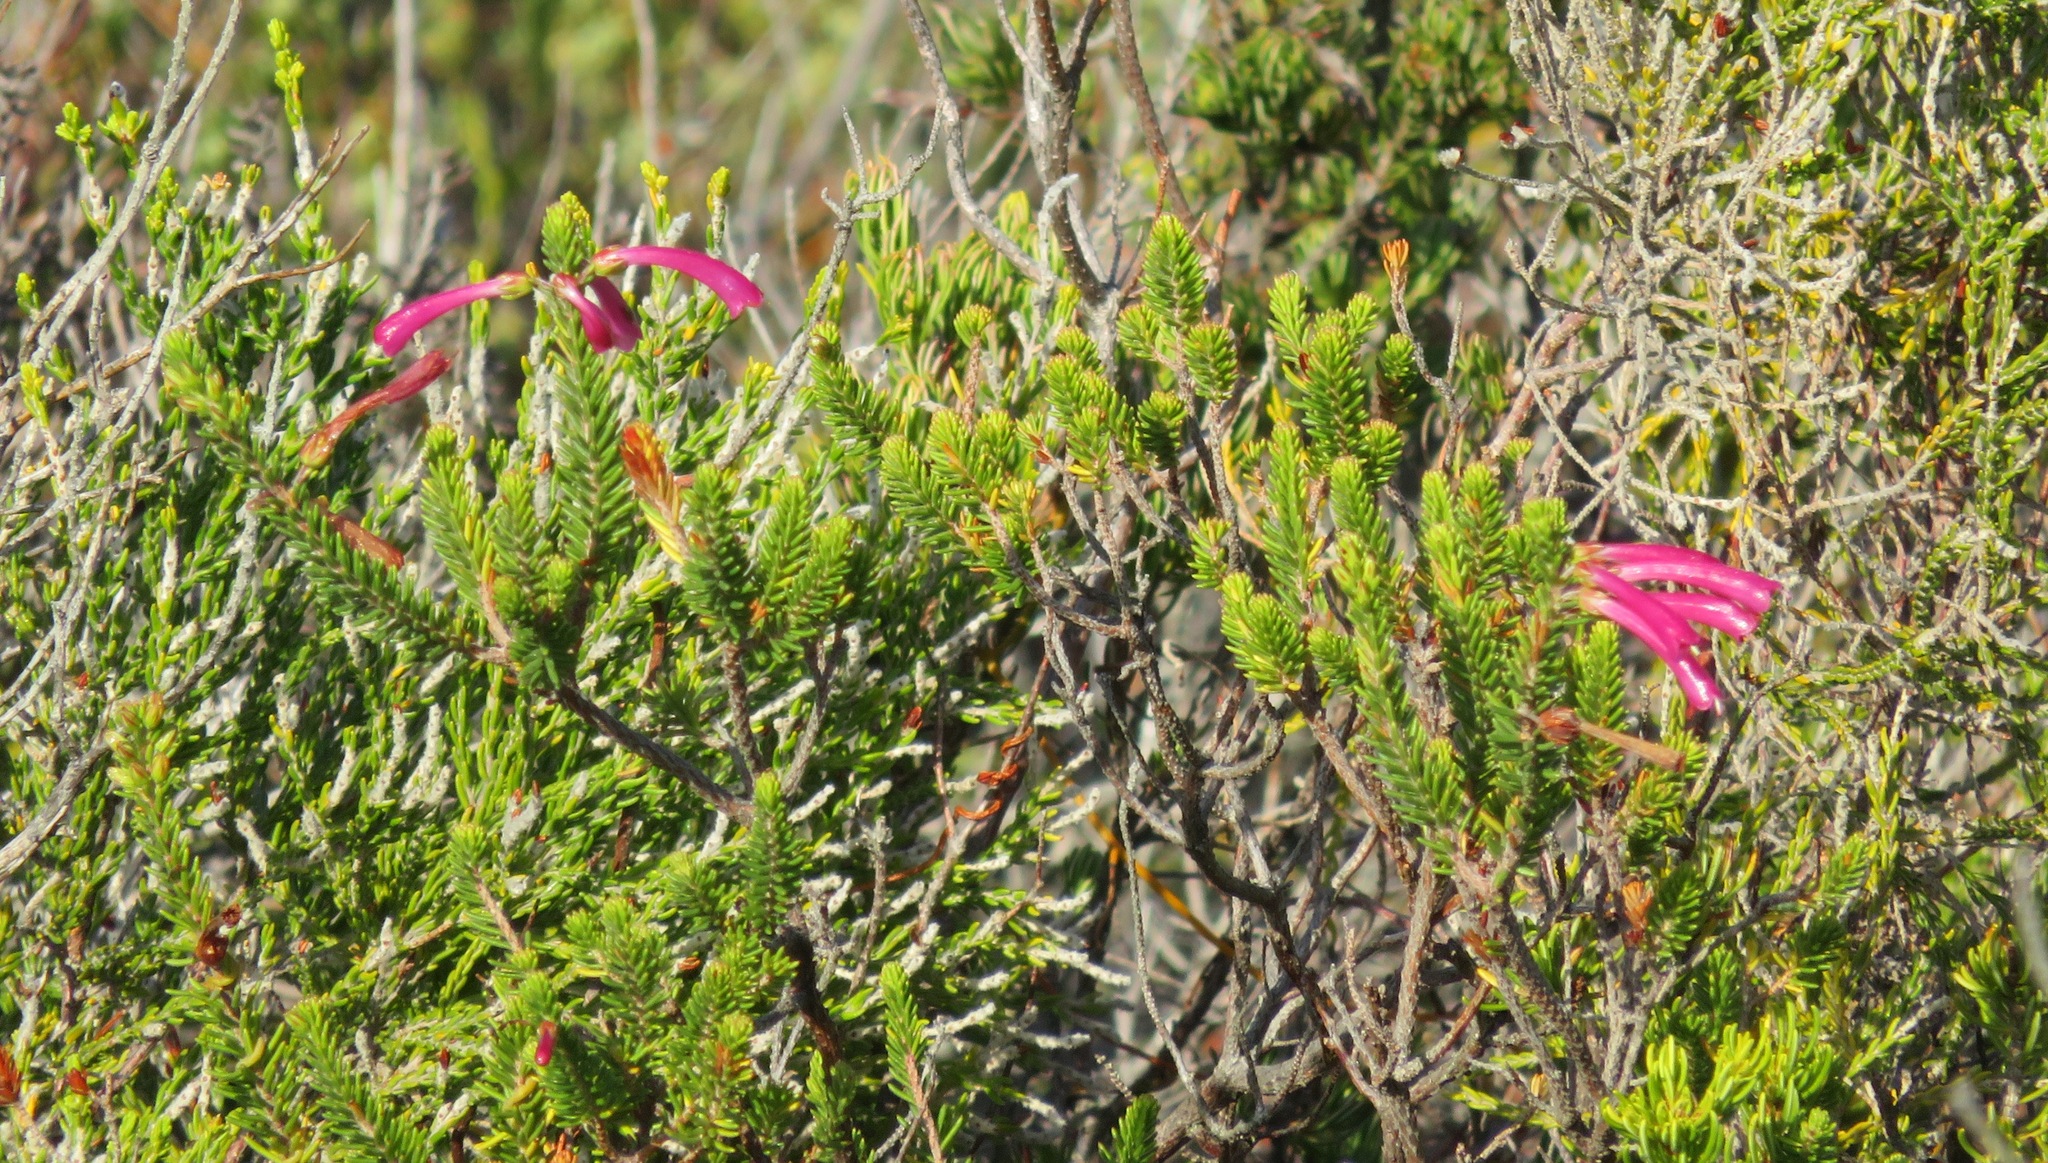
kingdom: Plantae
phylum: Tracheophyta
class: Magnoliopsida
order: Ericales
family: Ericaceae
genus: Erica
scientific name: Erica abietina
